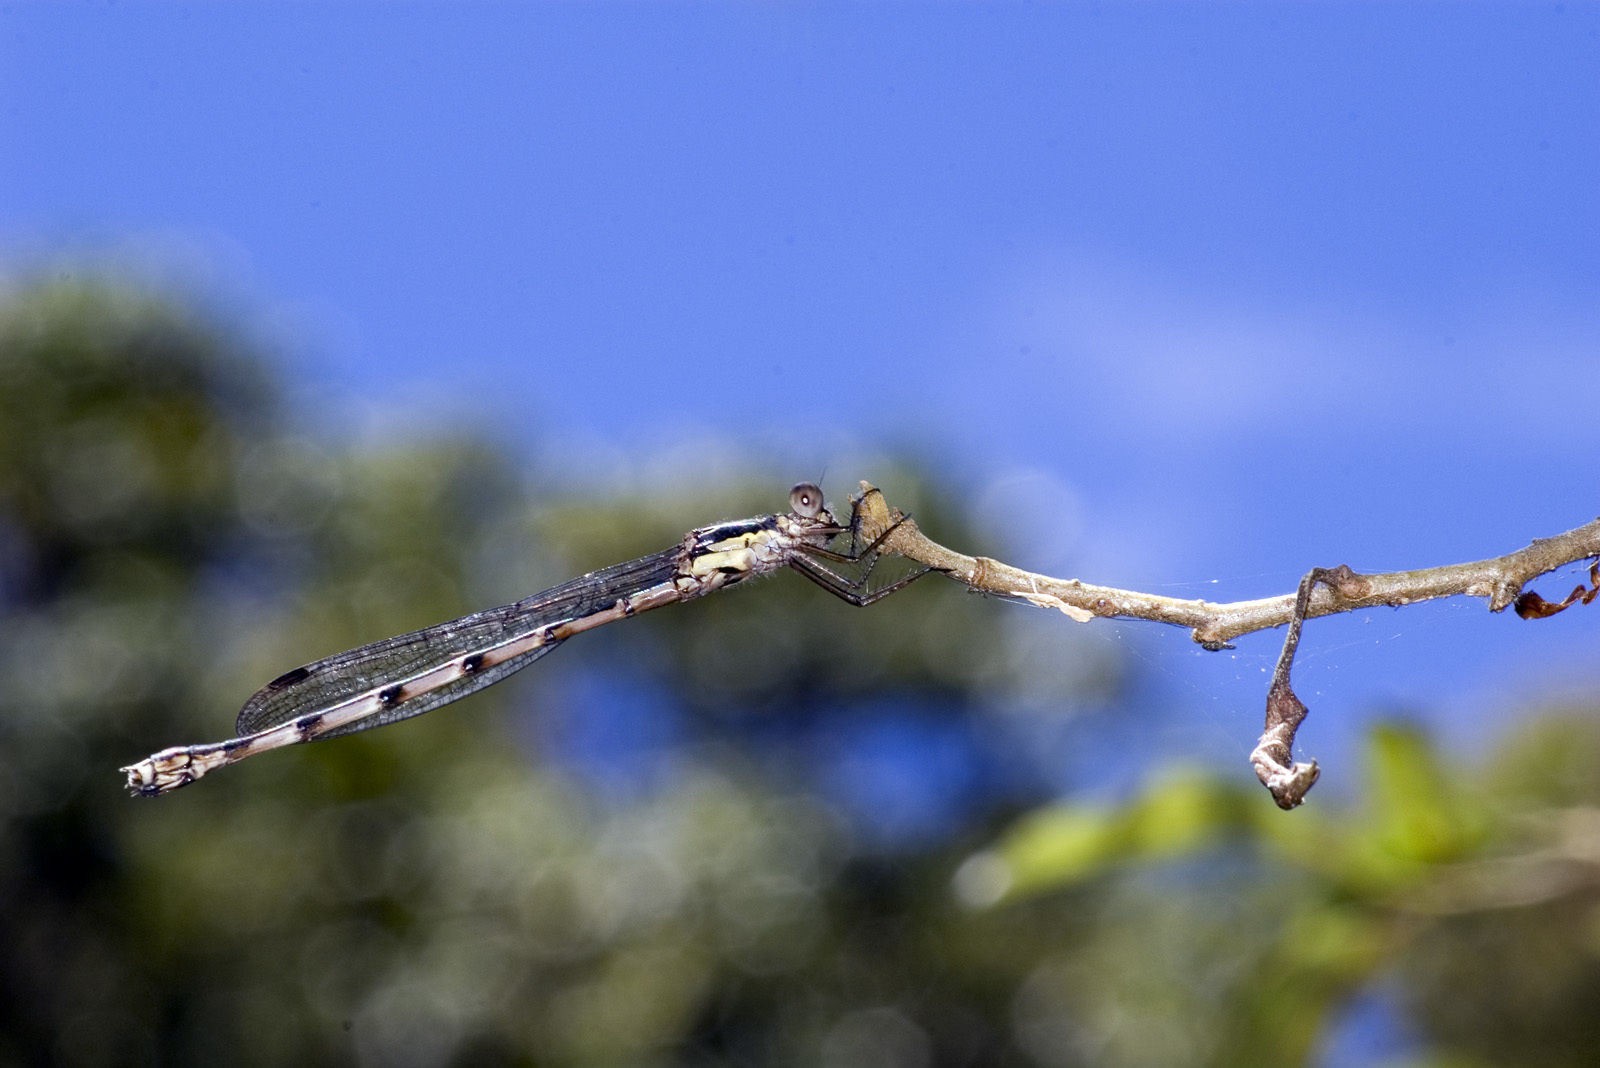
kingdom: Animalia
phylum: Arthropoda
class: Insecta
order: Odonata
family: Lestidae
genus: Austrolestes
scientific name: Austrolestes colensonis
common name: Blue damselfly
